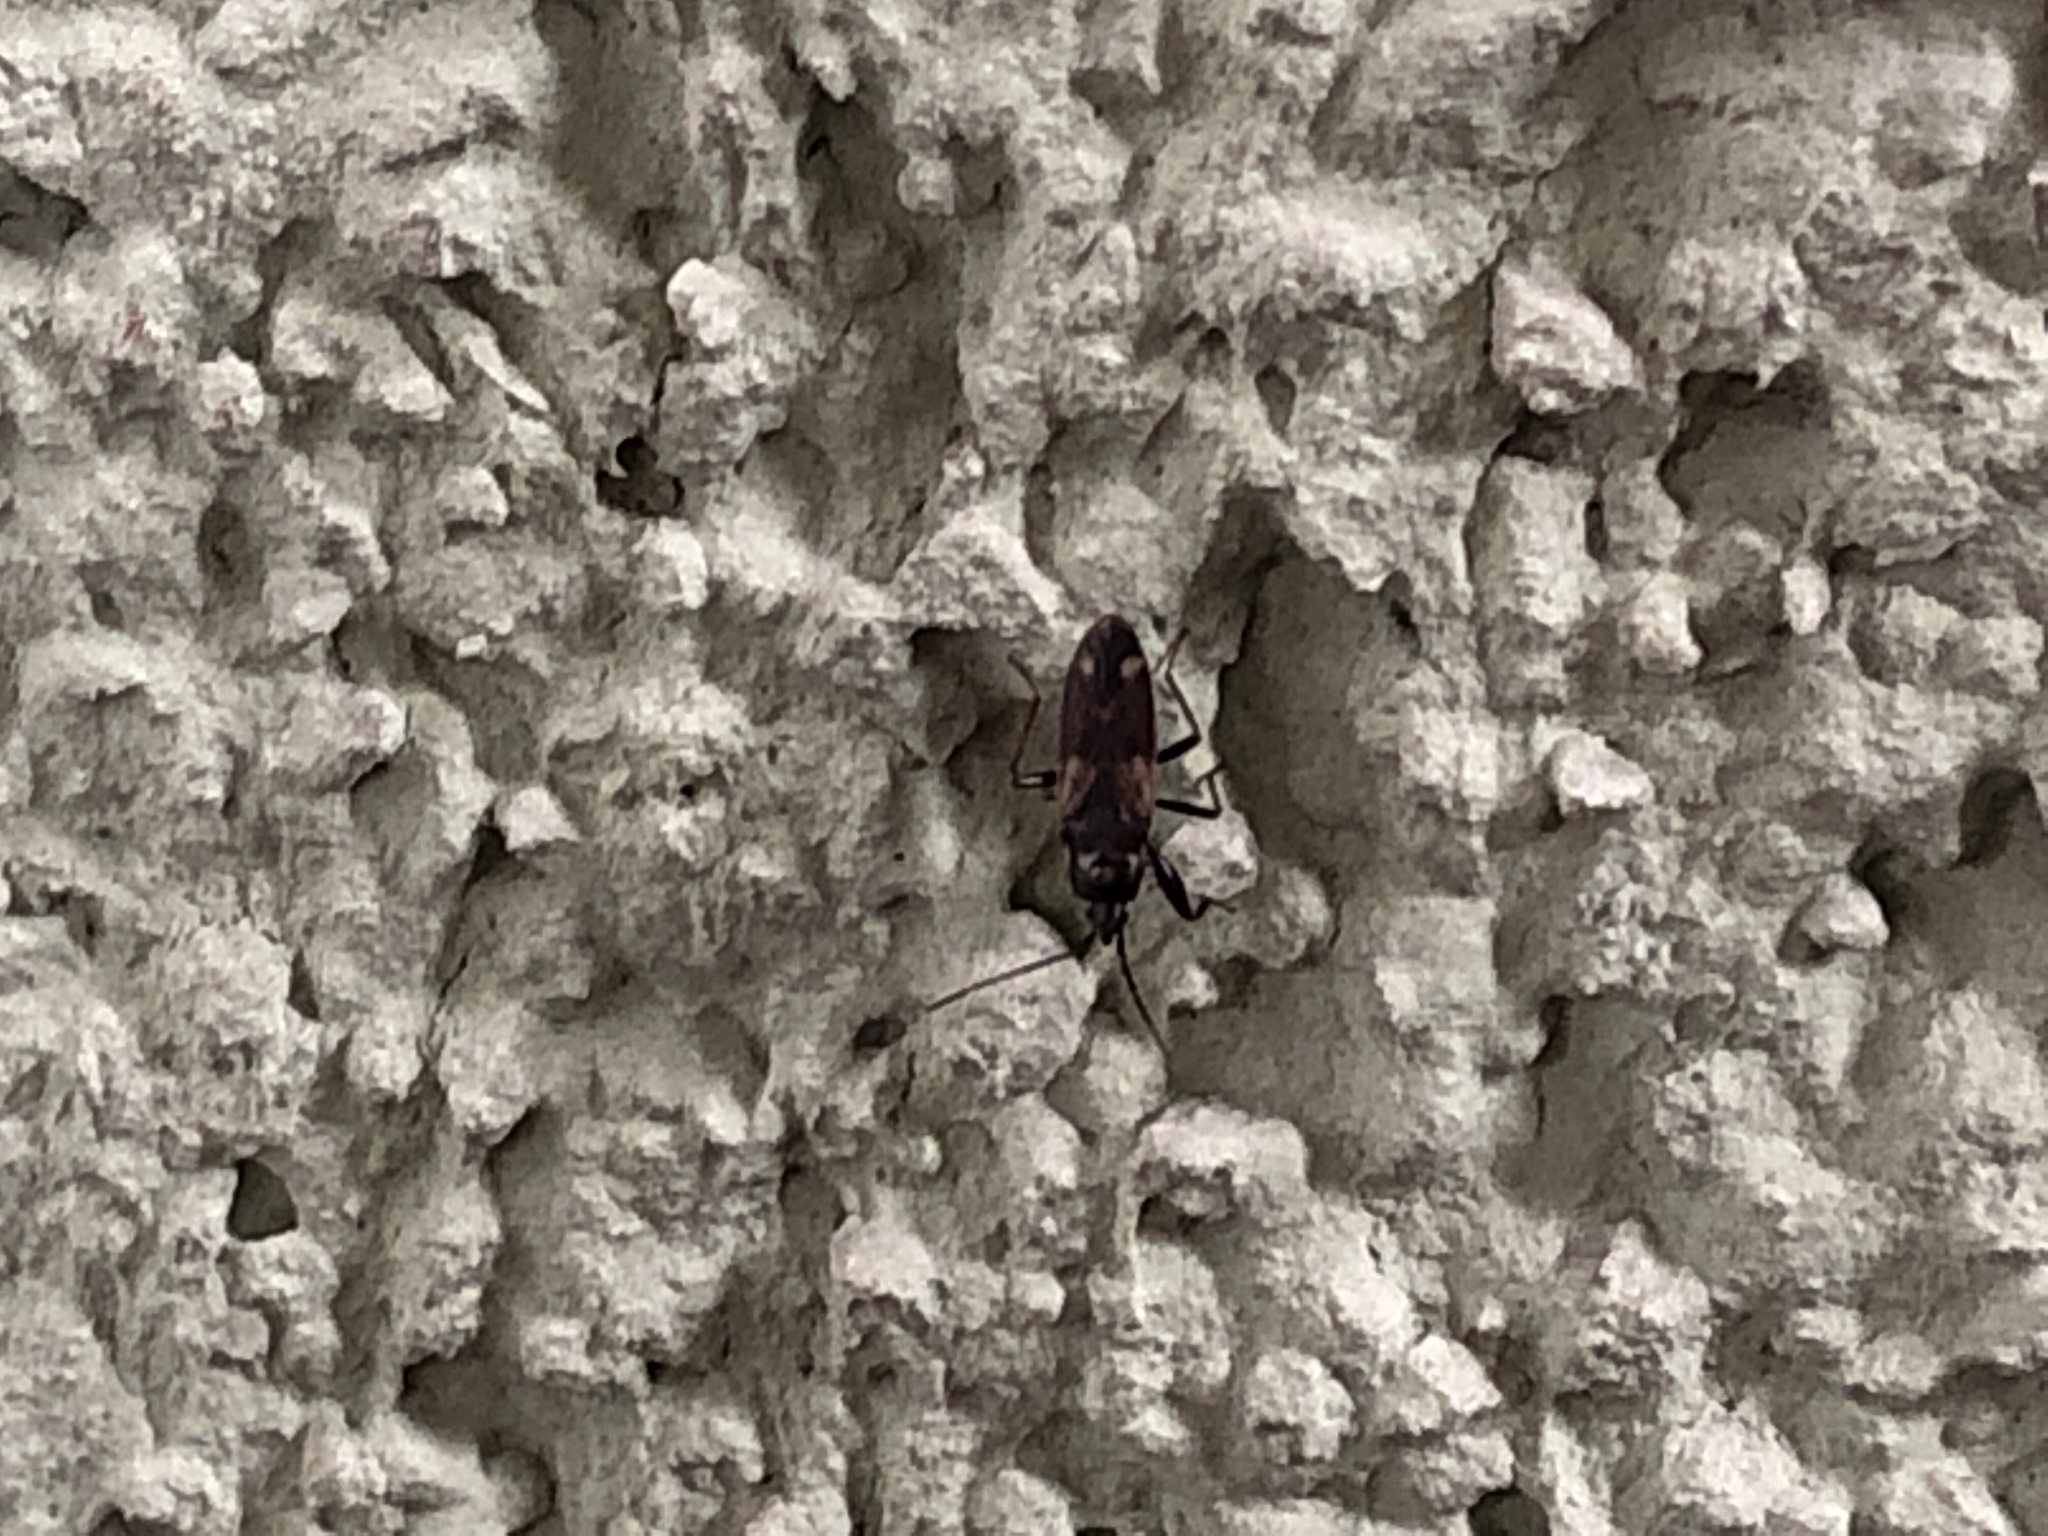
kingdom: Animalia
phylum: Arthropoda
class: Insecta
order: Hemiptera
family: Rhyparochromidae
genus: Eremocoris
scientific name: Eremocoris fenestratus
